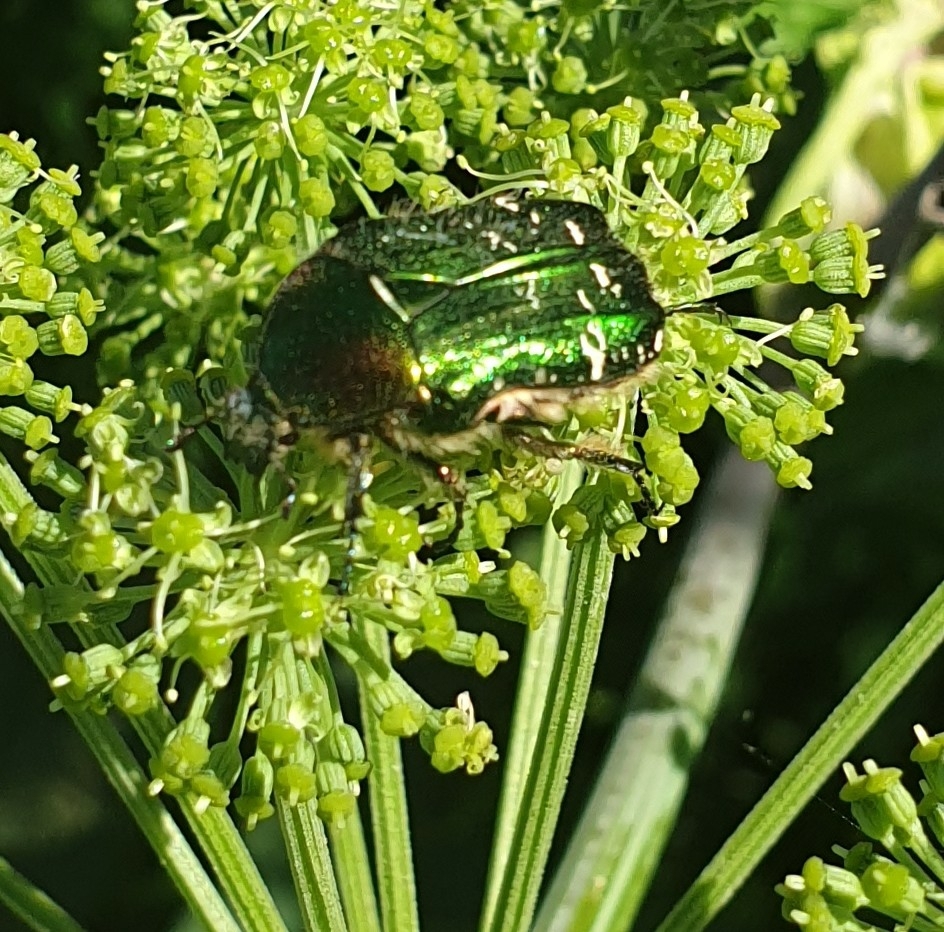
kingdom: Animalia
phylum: Arthropoda
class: Insecta
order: Coleoptera
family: Scarabaeidae
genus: Cetonia
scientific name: Cetonia aurata
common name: Rose chafer
